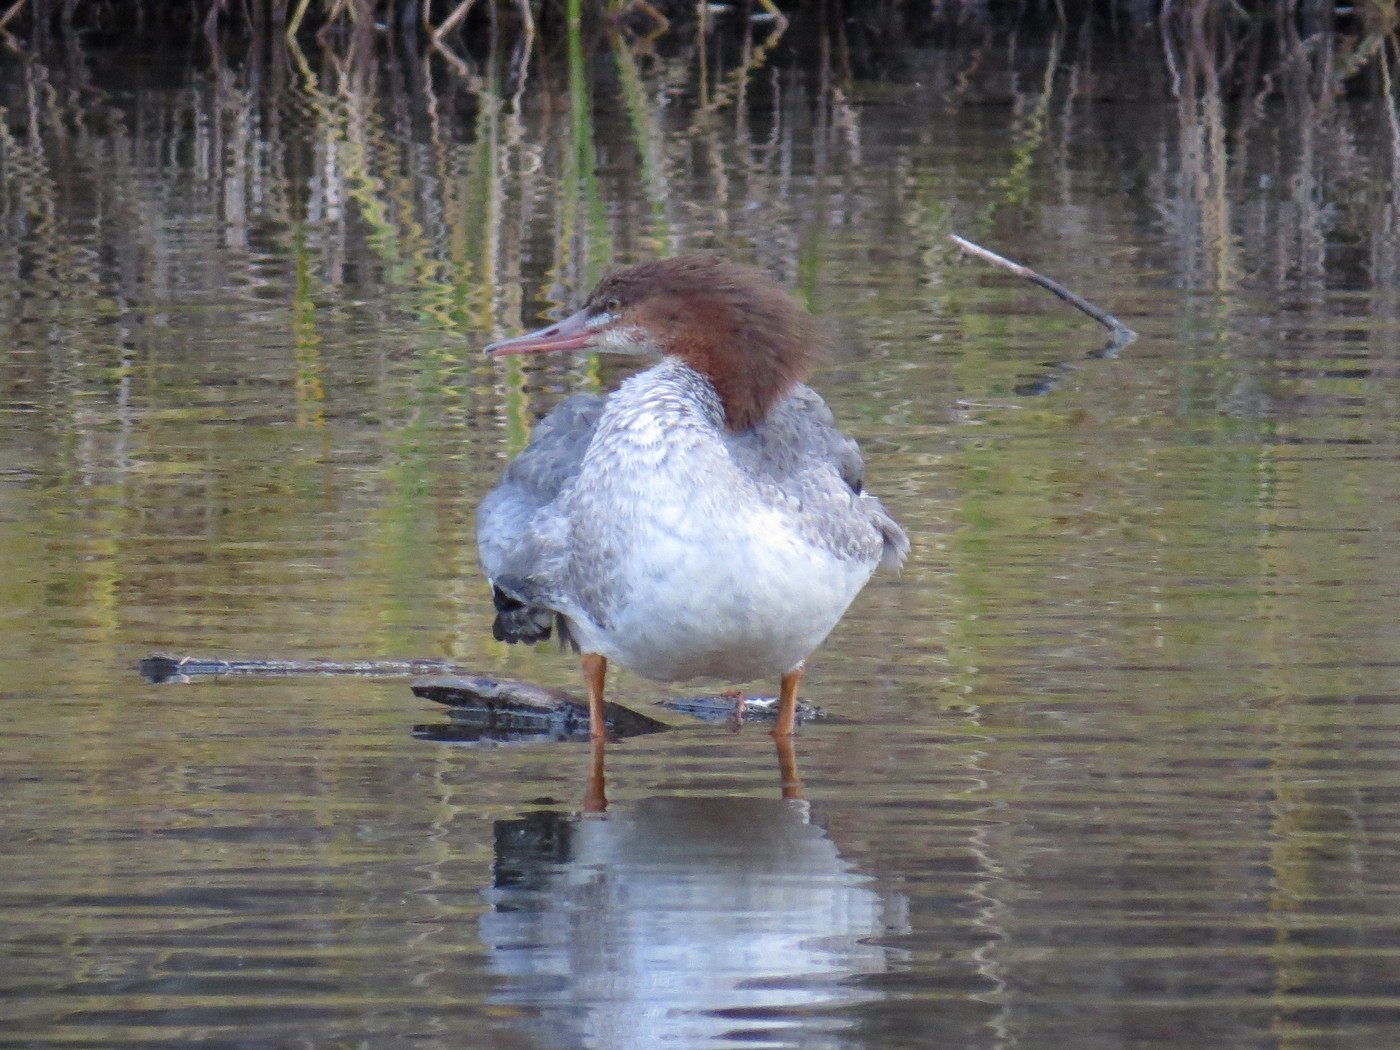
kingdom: Animalia
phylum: Chordata
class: Aves
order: Anseriformes
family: Anatidae
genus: Mergus
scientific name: Mergus merganser
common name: Common merganser
